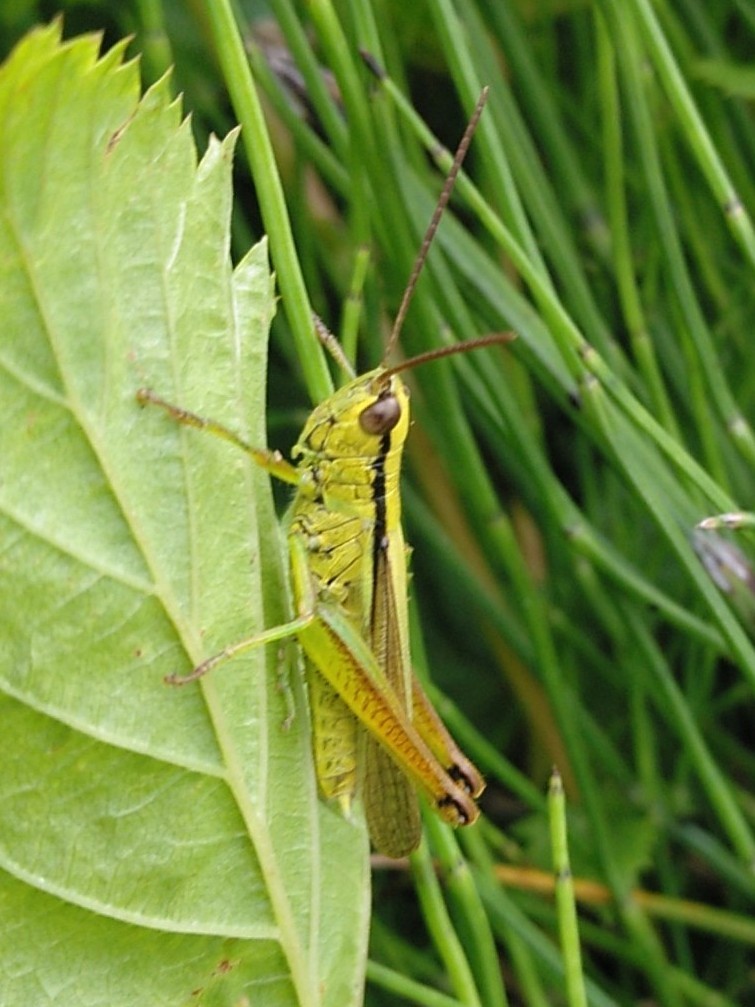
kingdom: Animalia
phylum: Arthropoda
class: Insecta
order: Orthoptera
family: Acrididae
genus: Mecostethus
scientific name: Mecostethus parapleurus
